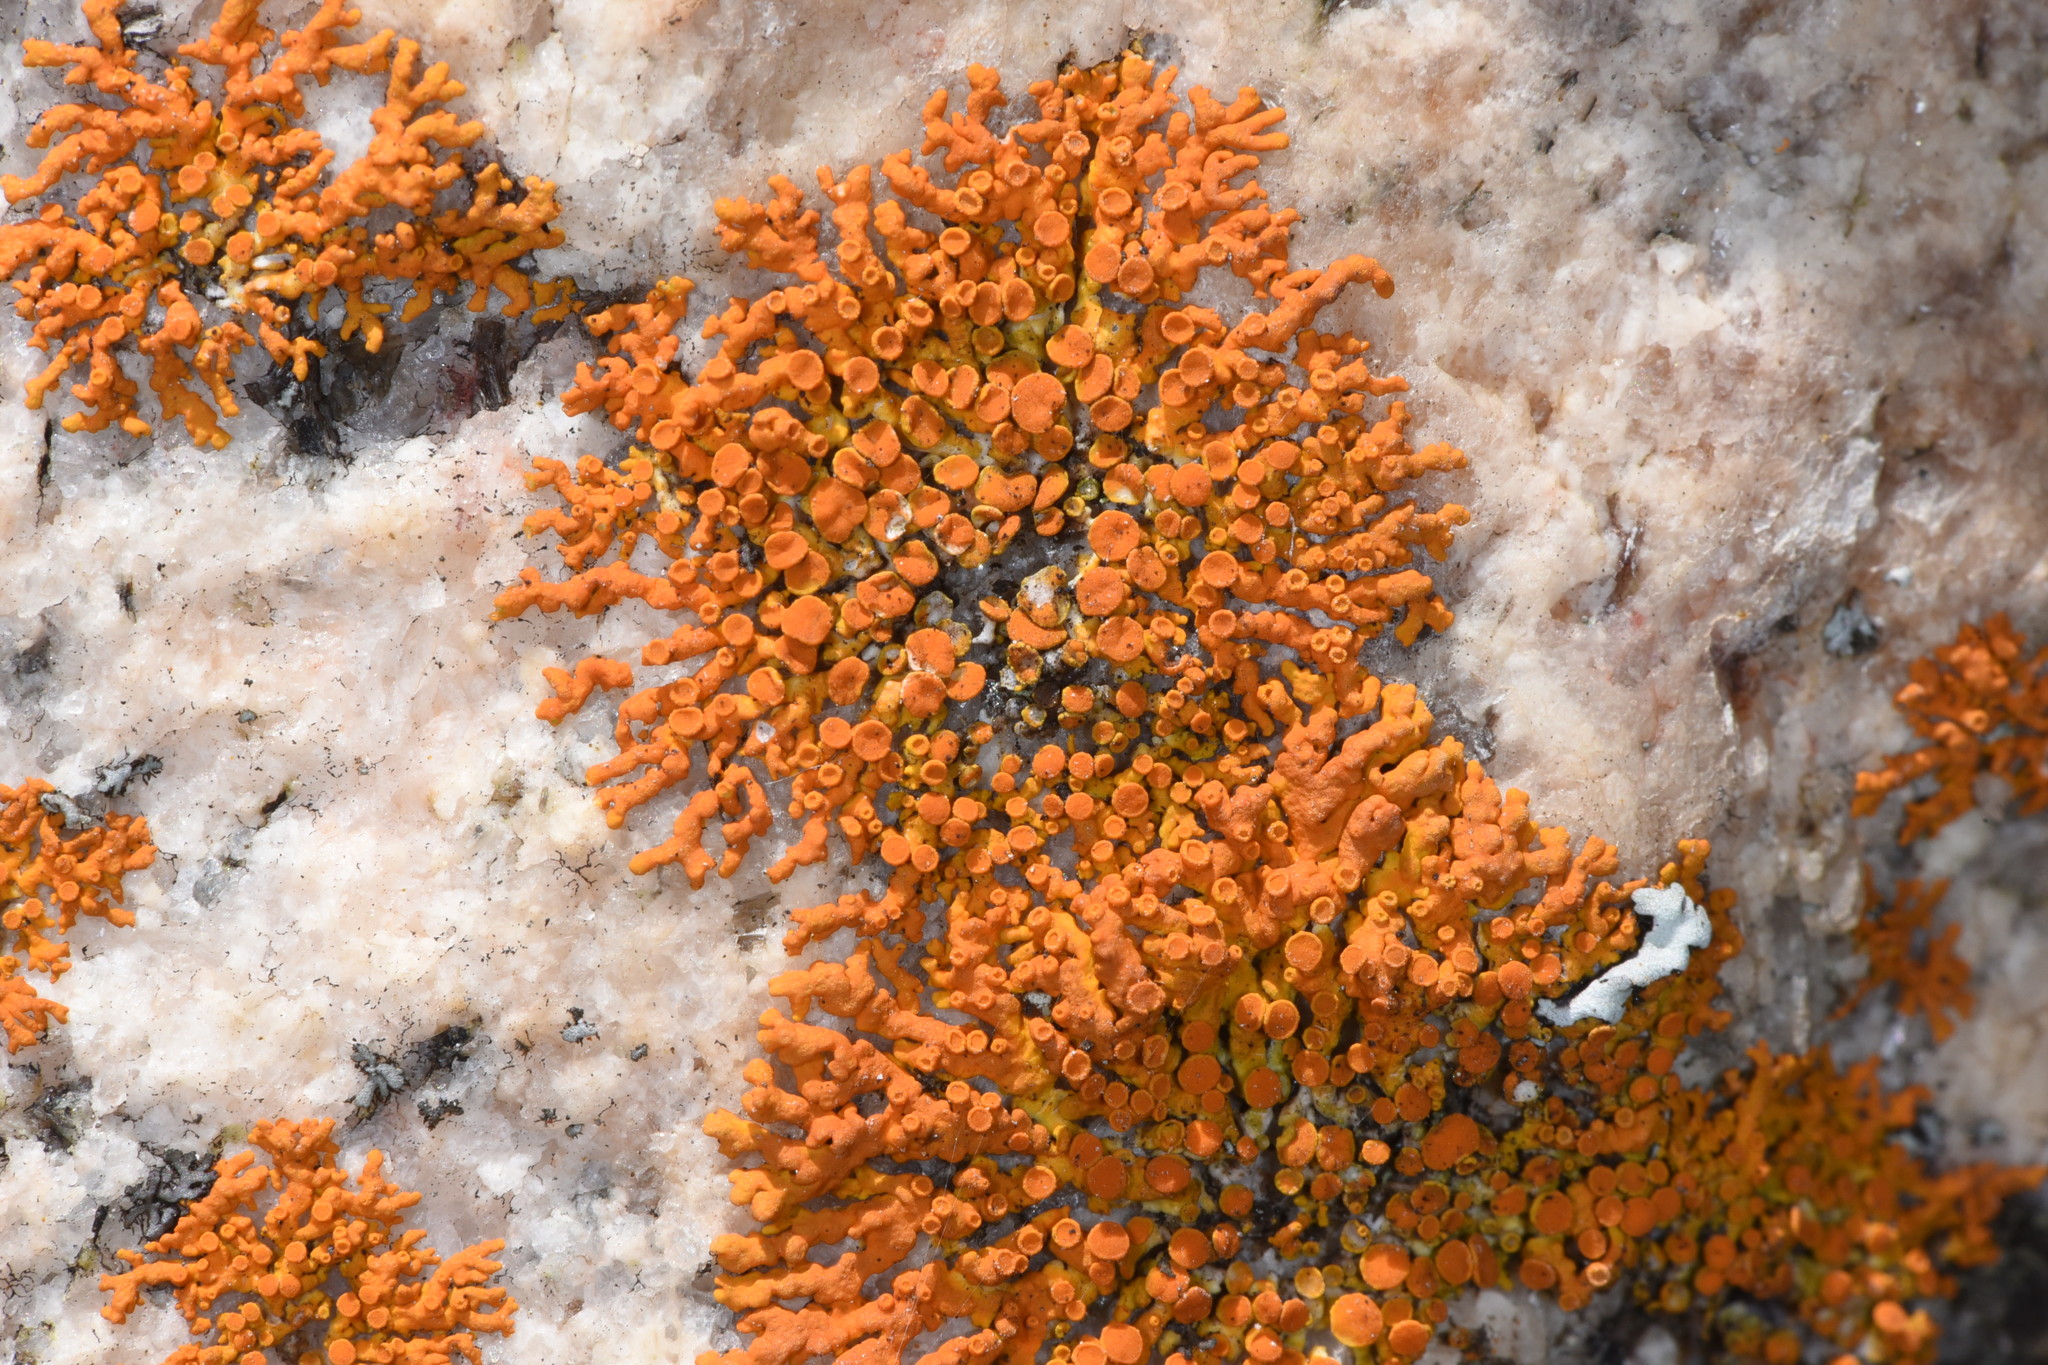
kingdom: Fungi
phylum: Ascomycota
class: Lecanoromycetes
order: Teloschistales
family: Teloschistaceae
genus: Xanthoria
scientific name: Xanthoria elegans
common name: Elegant sunburst lichen
